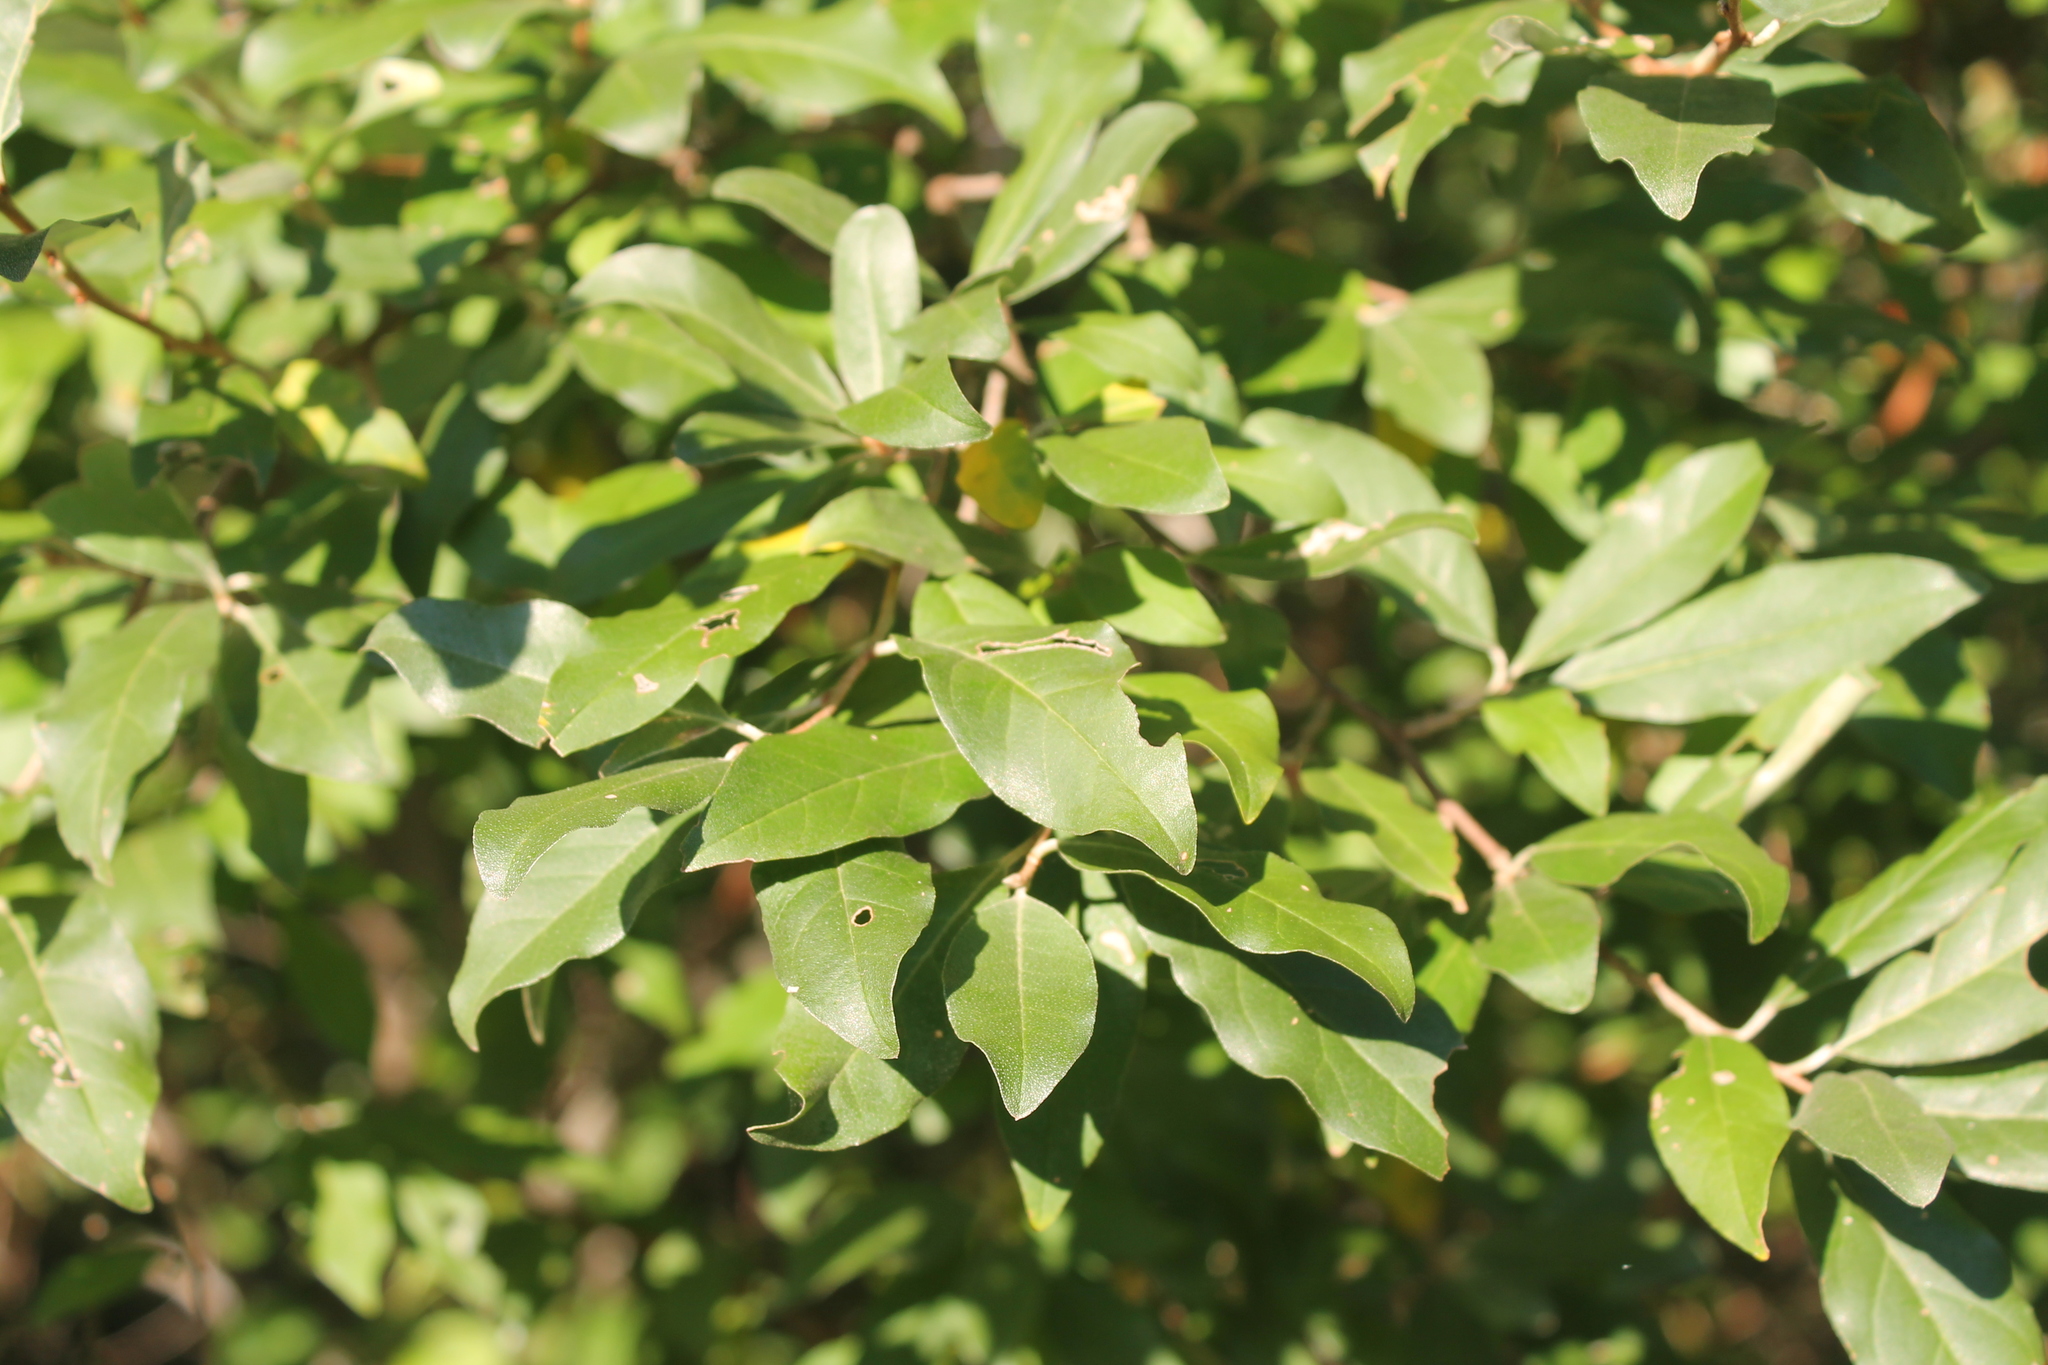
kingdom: Plantae
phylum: Tracheophyta
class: Magnoliopsida
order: Rosales
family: Elaeagnaceae
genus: Elaeagnus
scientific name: Elaeagnus umbellata
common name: Autumn olive
